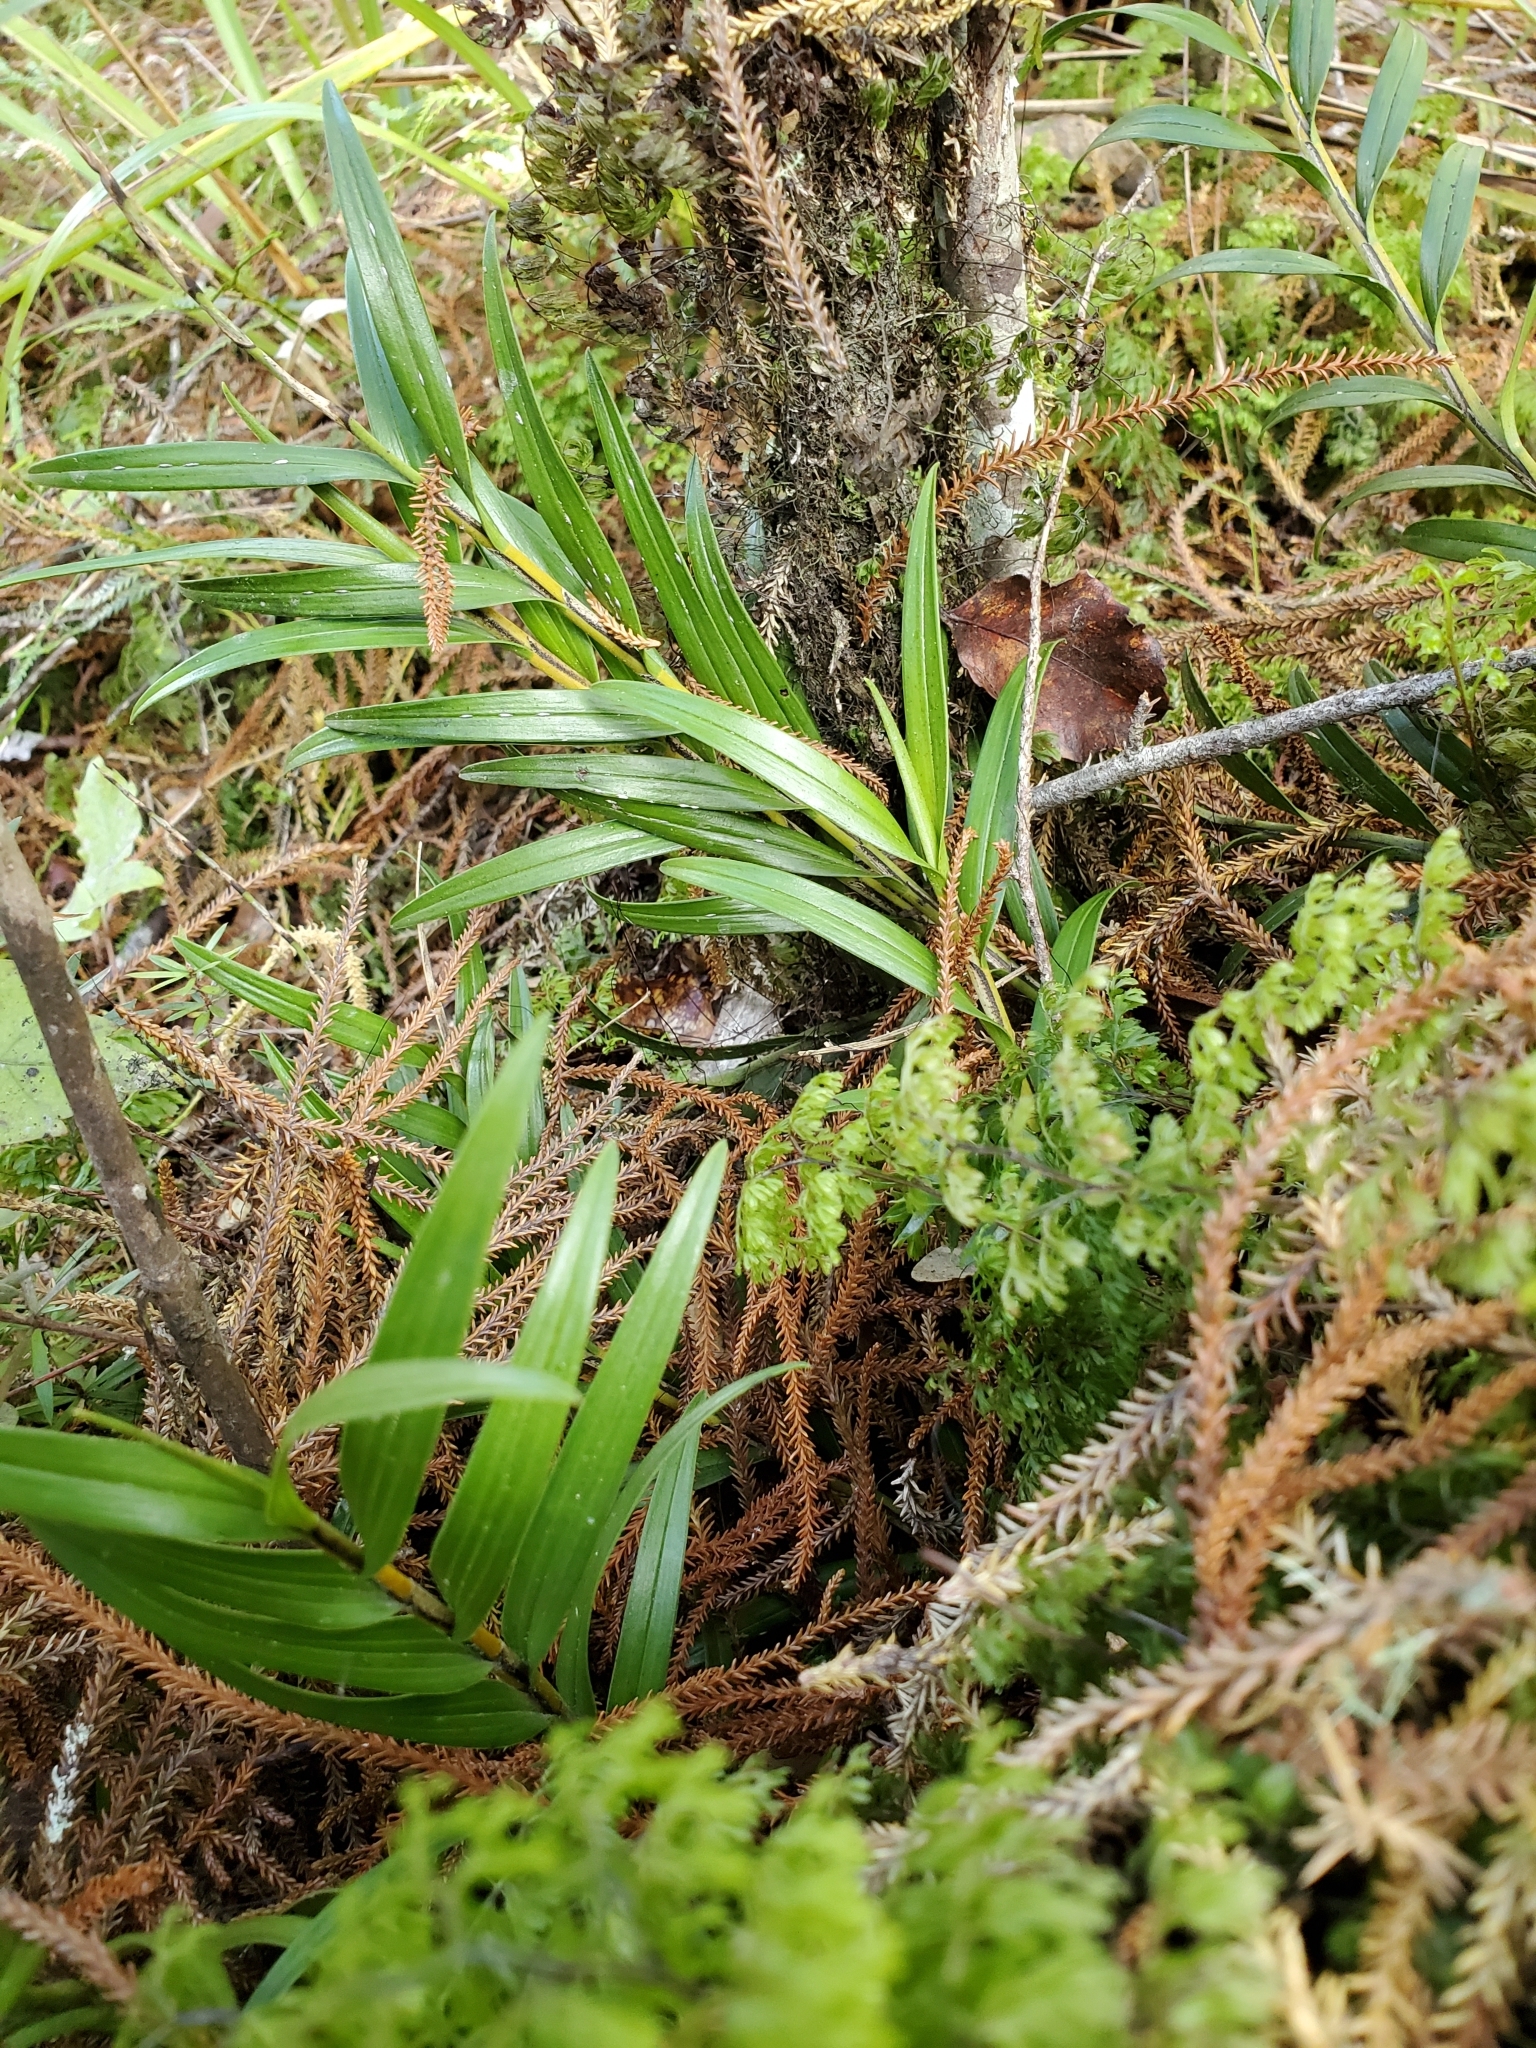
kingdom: Plantae
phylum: Tracheophyta
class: Liliopsida
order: Asparagales
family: Orchidaceae
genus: Earina
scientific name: Earina autumnalis
